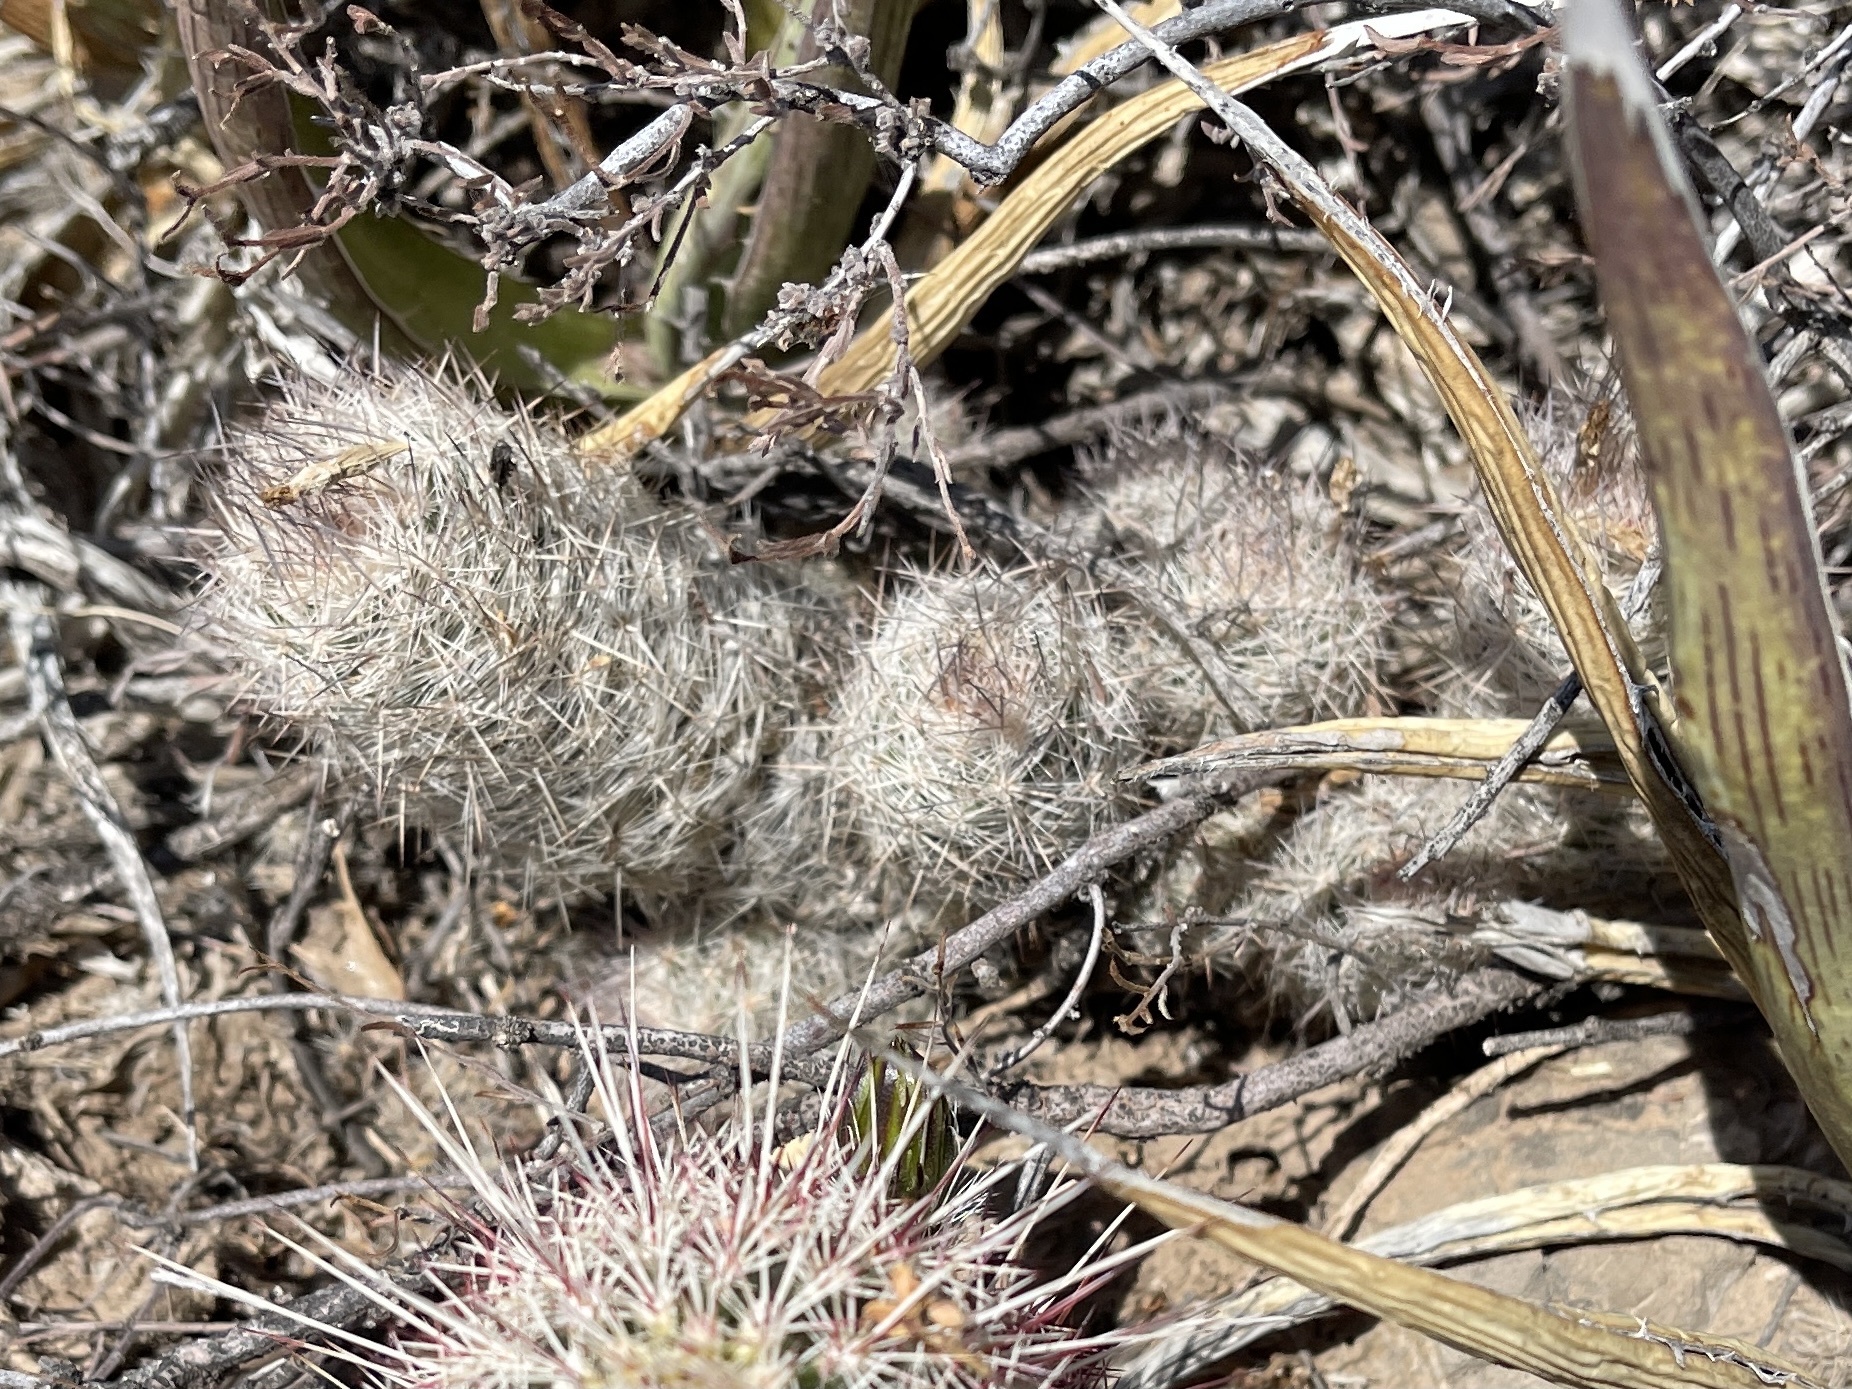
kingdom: Plantae
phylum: Tracheophyta
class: Magnoliopsida
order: Caryophyllales
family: Cactaceae
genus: Pelecyphora
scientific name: Pelecyphora tuberculosa
